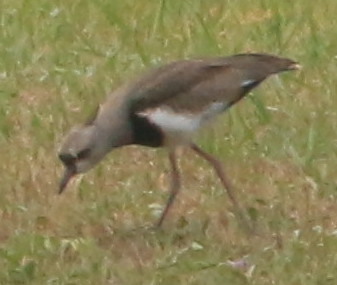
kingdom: Animalia
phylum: Chordata
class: Aves
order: Charadriiformes
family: Charadriidae
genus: Vanellus
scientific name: Vanellus chilensis
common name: Southern lapwing
